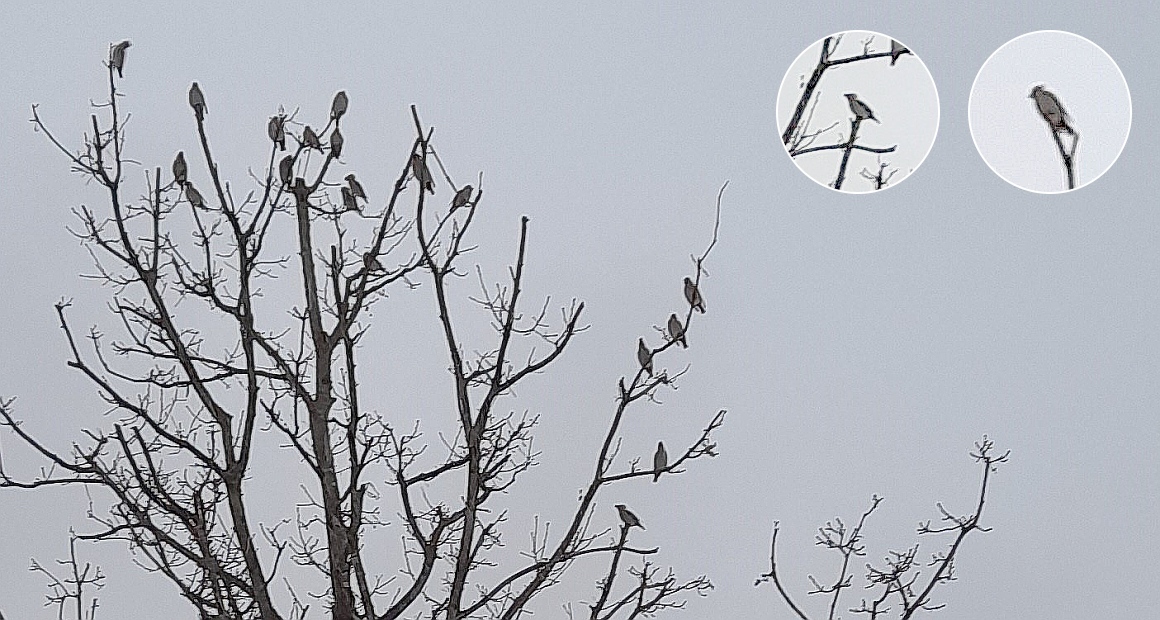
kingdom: Animalia
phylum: Chordata
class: Aves
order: Passeriformes
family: Bombycillidae
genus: Bombycilla
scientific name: Bombycilla garrulus
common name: Bohemian waxwing
